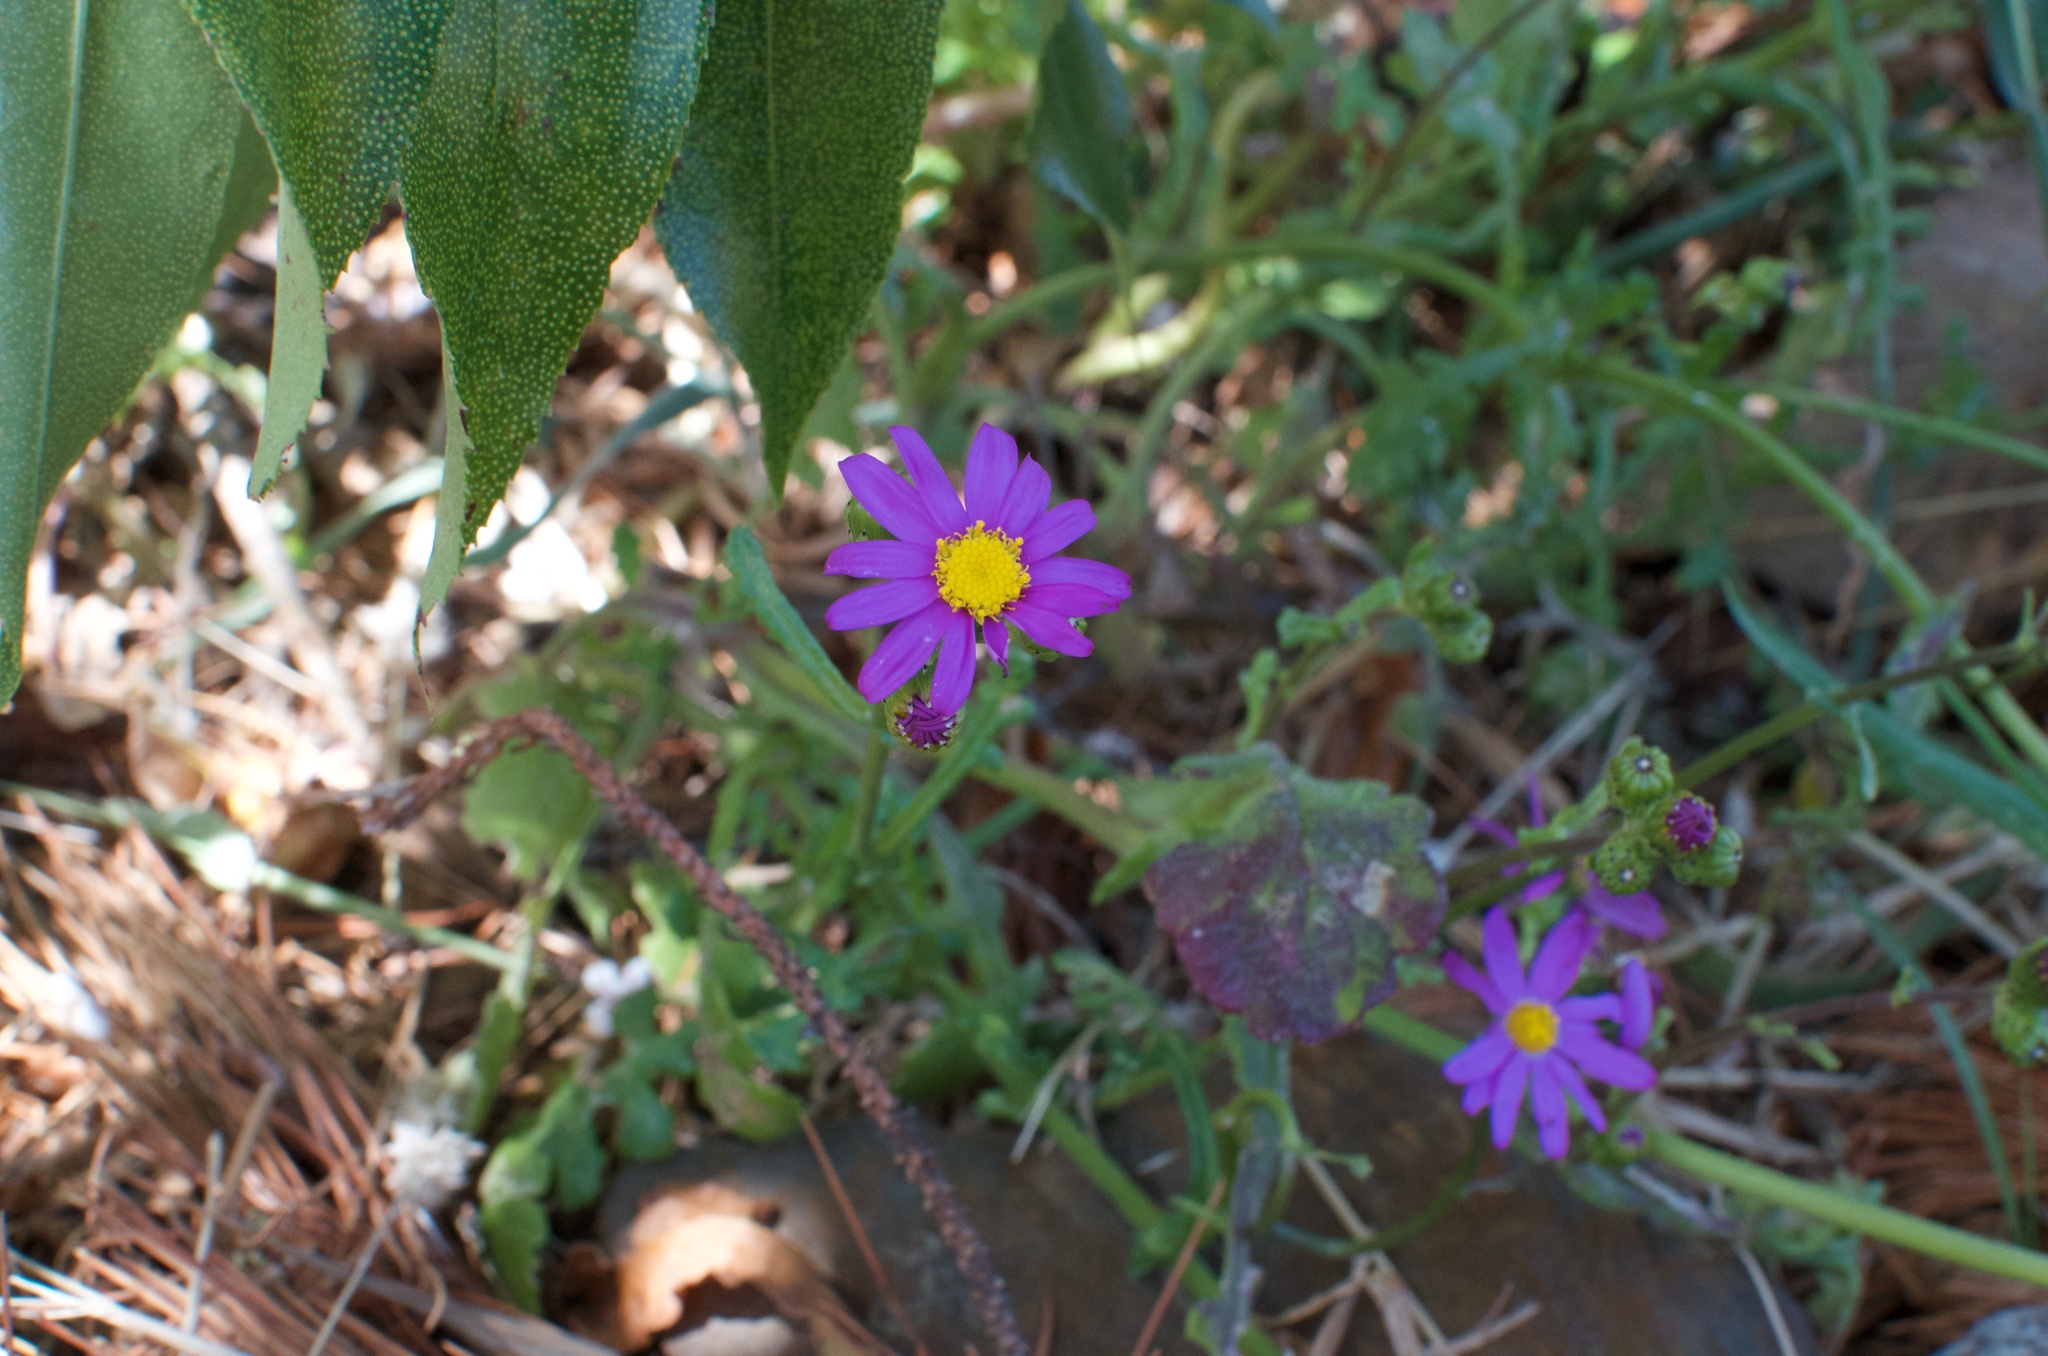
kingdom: Plantae
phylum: Tracheophyta
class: Magnoliopsida
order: Asterales
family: Asteraceae
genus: Senecio
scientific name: Senecio elegans
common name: Purple groundsel
